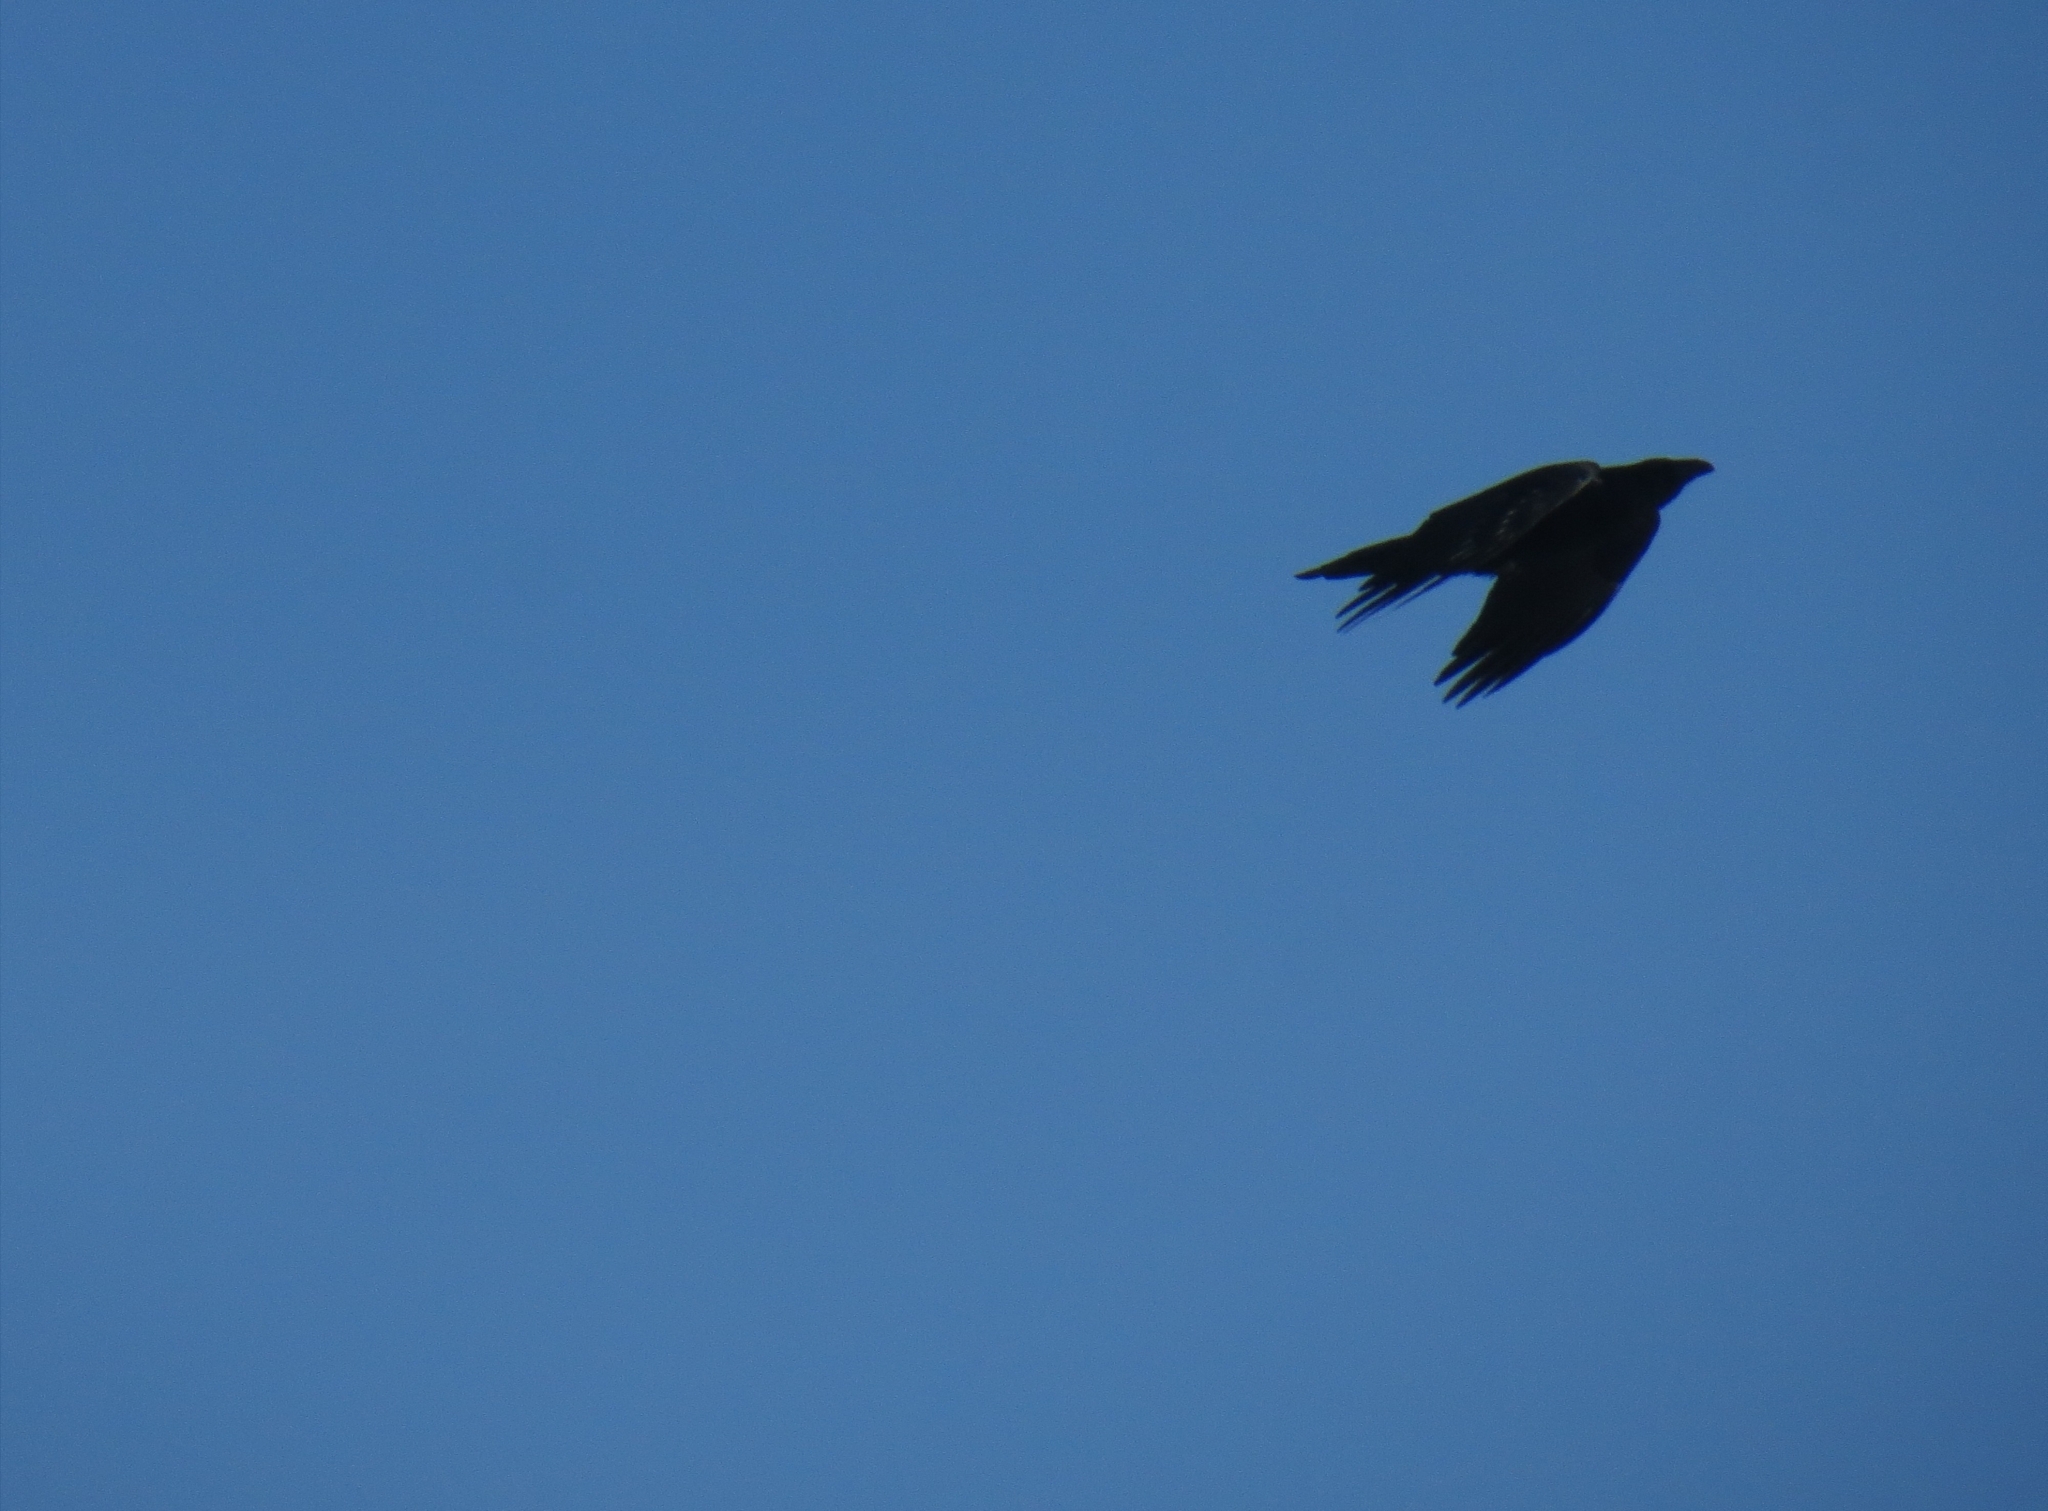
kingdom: Animalia
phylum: Chordata
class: Aves
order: Passeriformes
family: Corvidae
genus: Corvus
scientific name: Corvus corax
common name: Common raven
